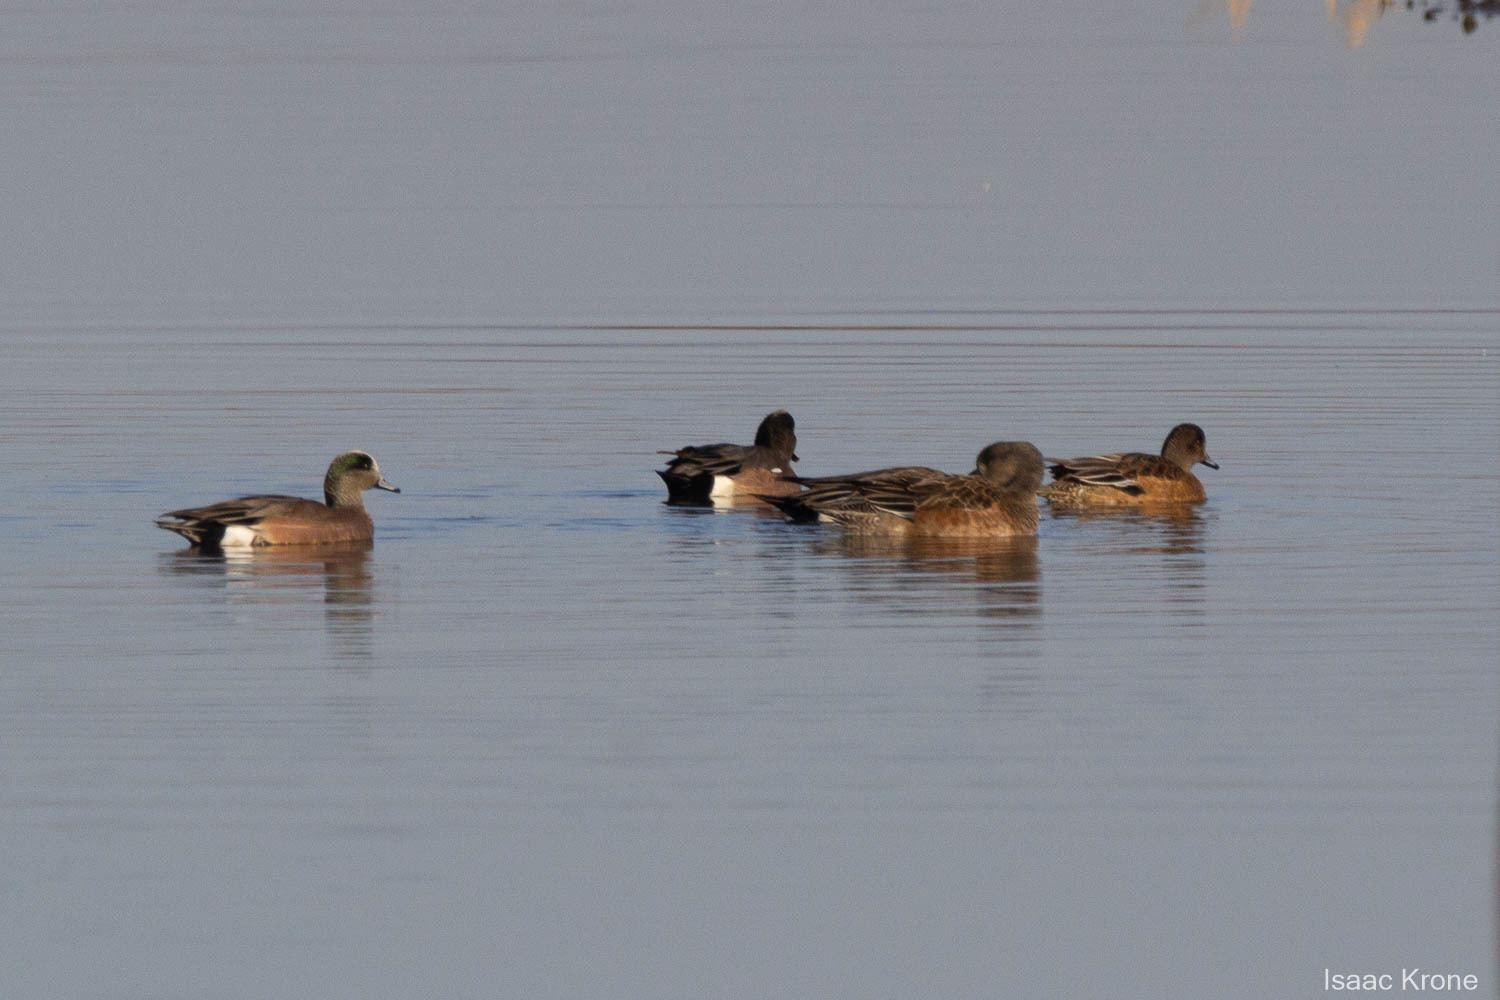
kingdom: Animalia
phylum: Chordata
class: Aves
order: Anseriformes
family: Anatidae
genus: Mareca
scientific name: Mareca americana
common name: American wigeon
